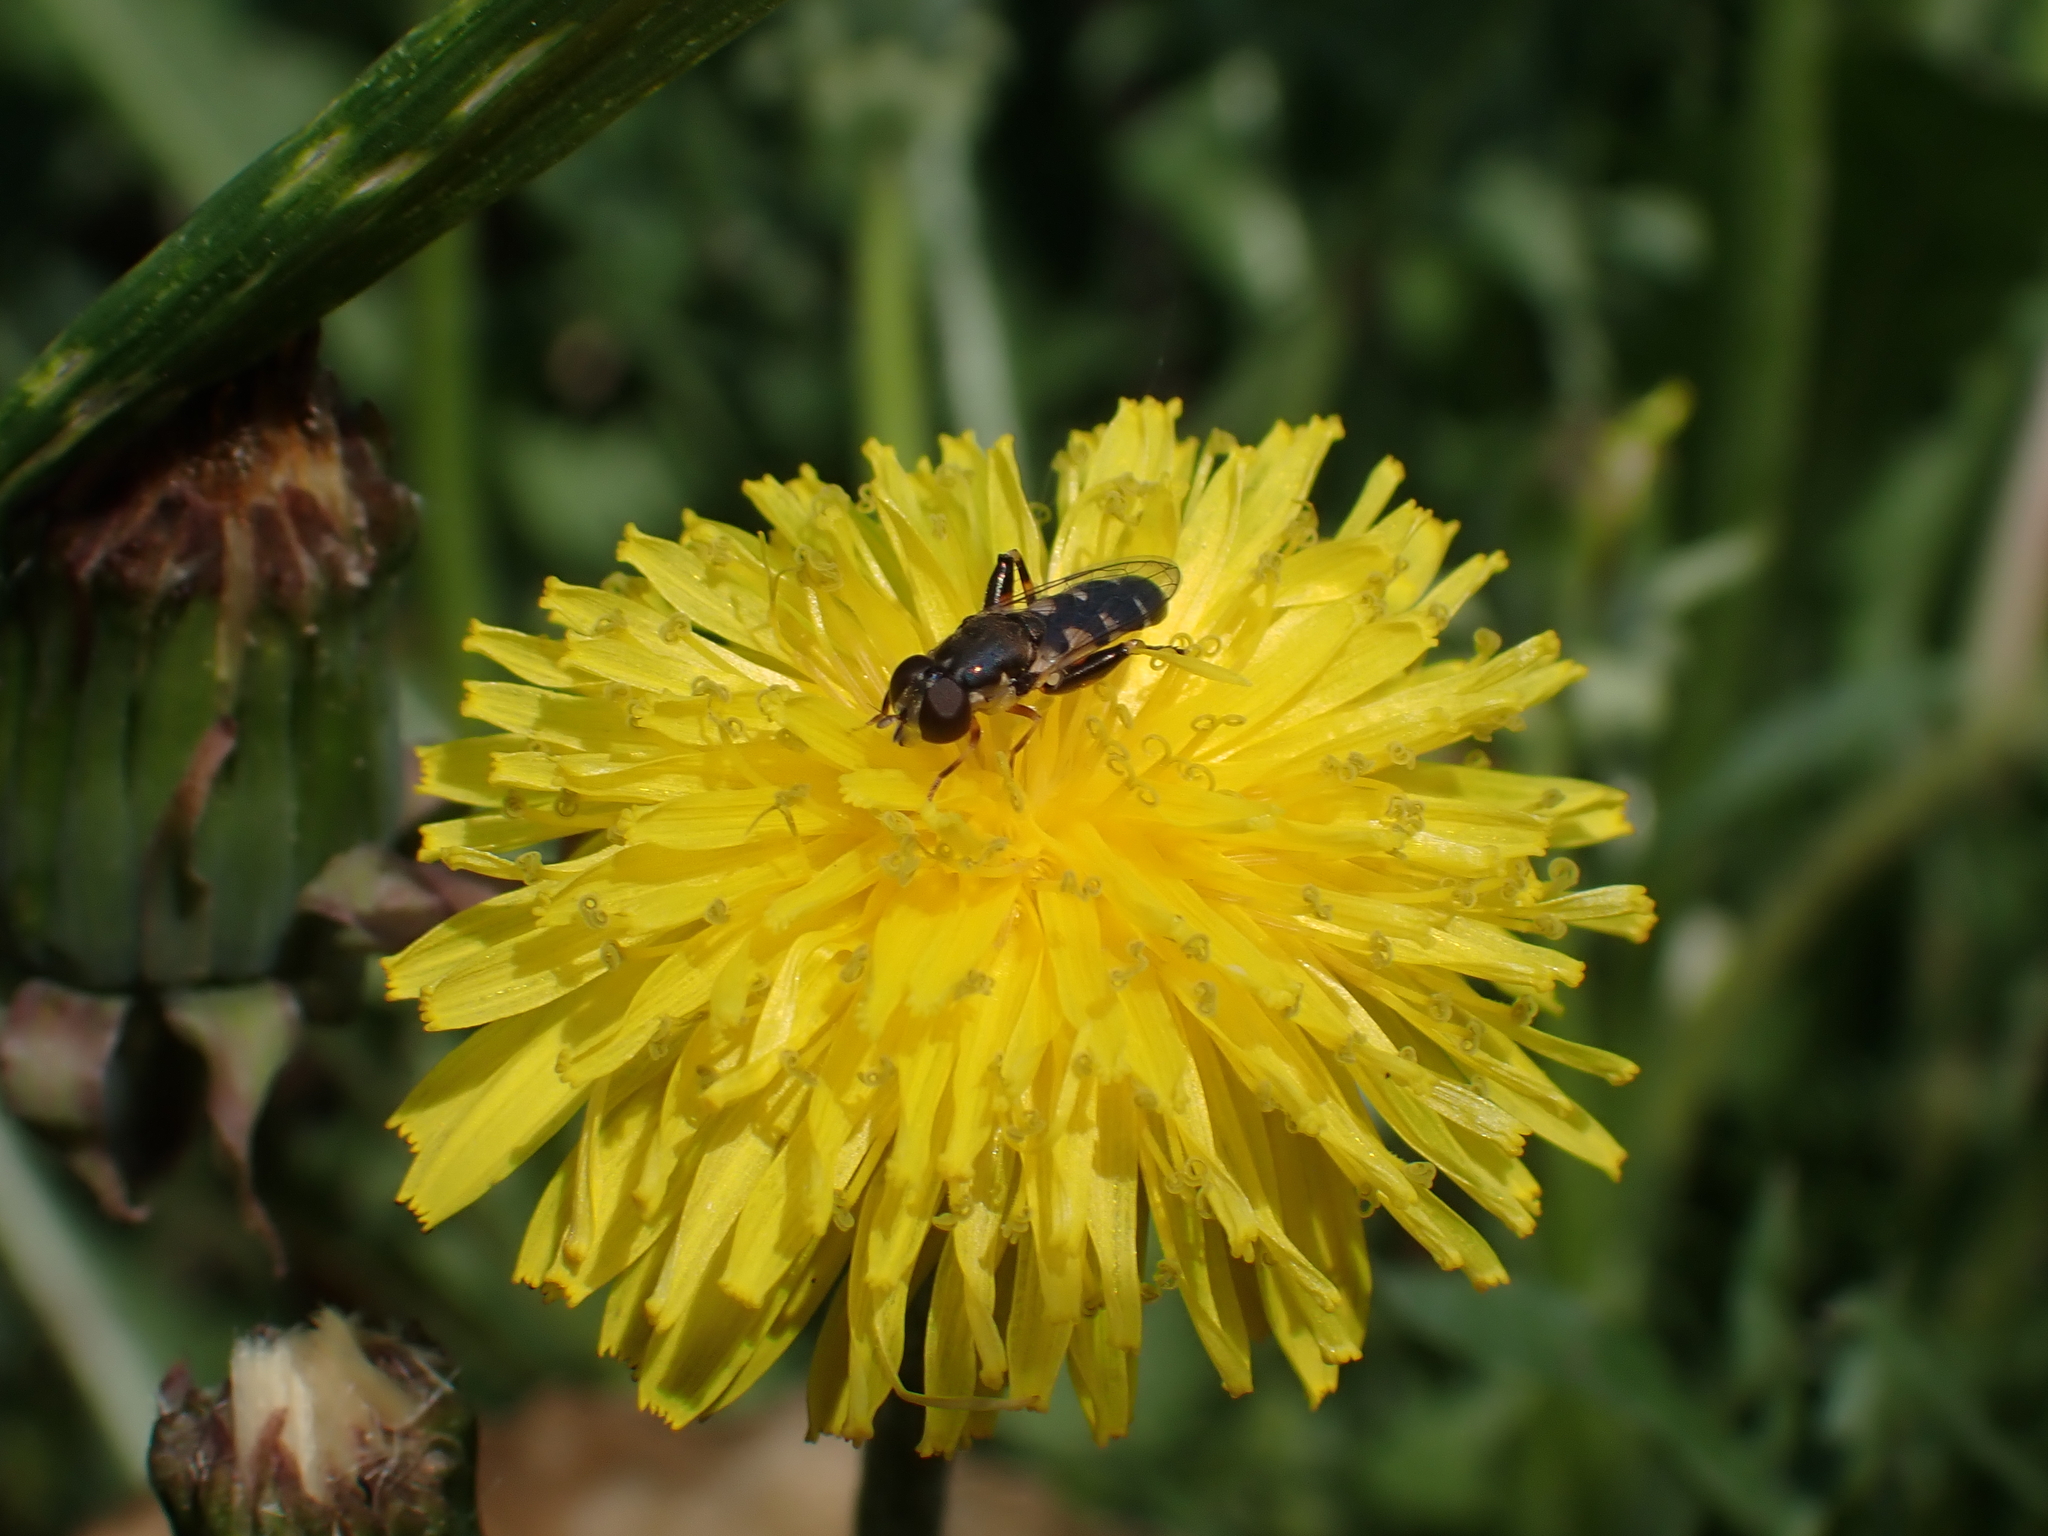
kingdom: Animalia
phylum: Arthropoda
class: Insecta
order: Diptera
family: Syrphidae
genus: Syritta
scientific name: Syritta pipiens
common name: Hover fly
